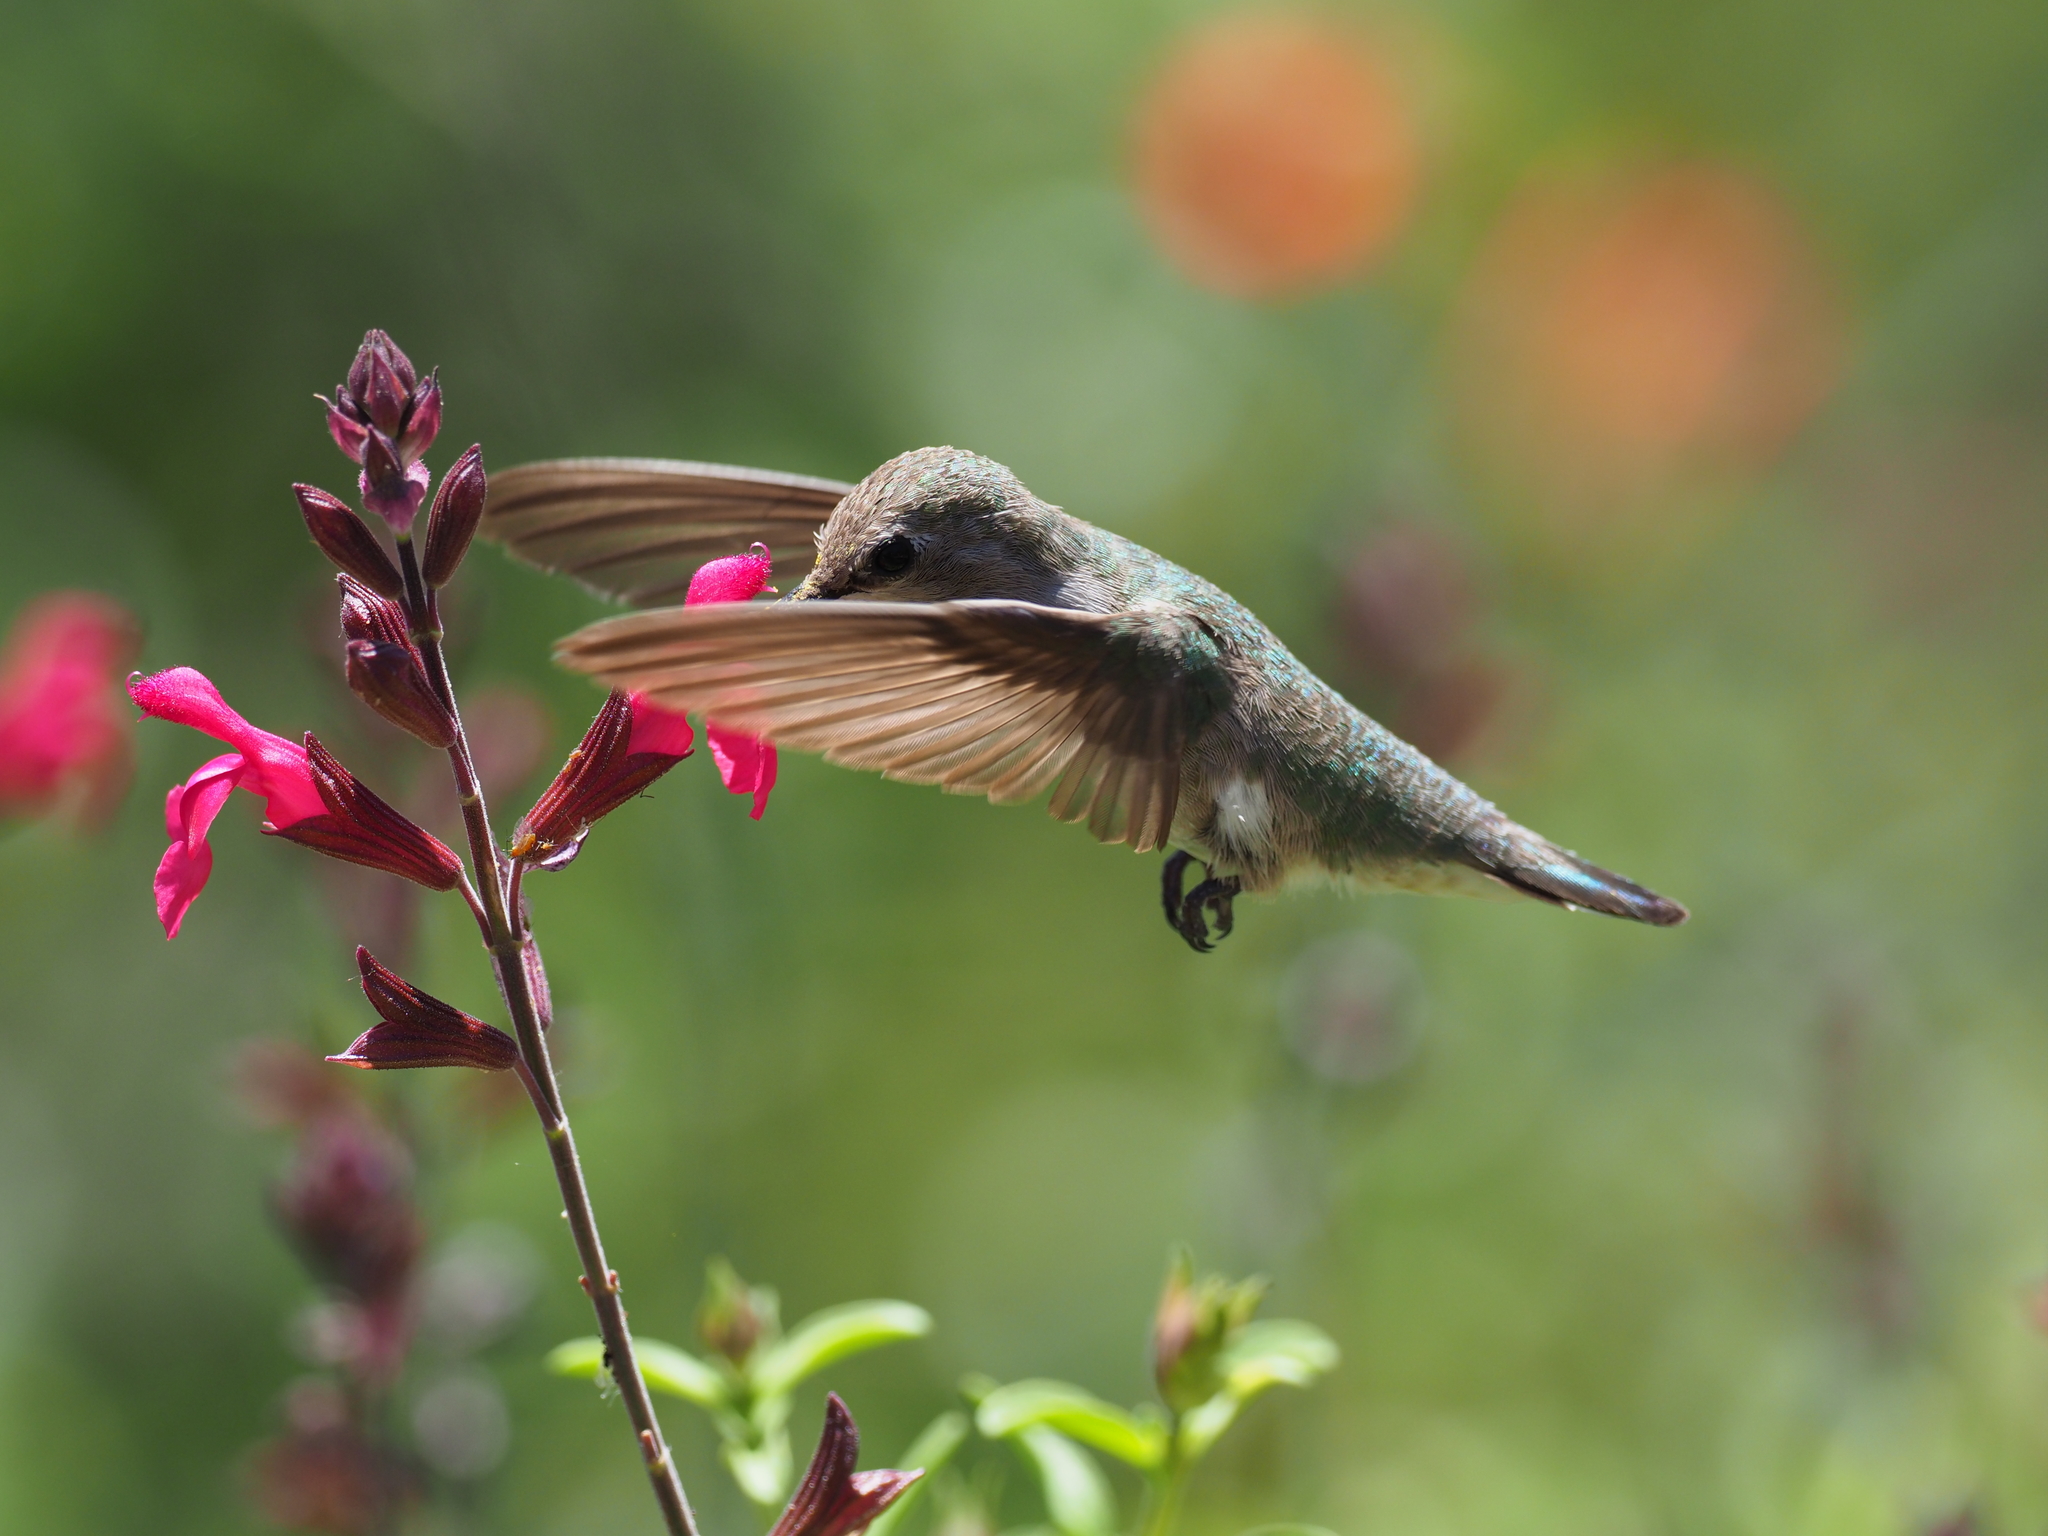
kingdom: Animalia
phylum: Chordata
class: Aves
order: Apodiformes
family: Trochilidae
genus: Calypte
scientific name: Calypte anna
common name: Anna's hummingbird
